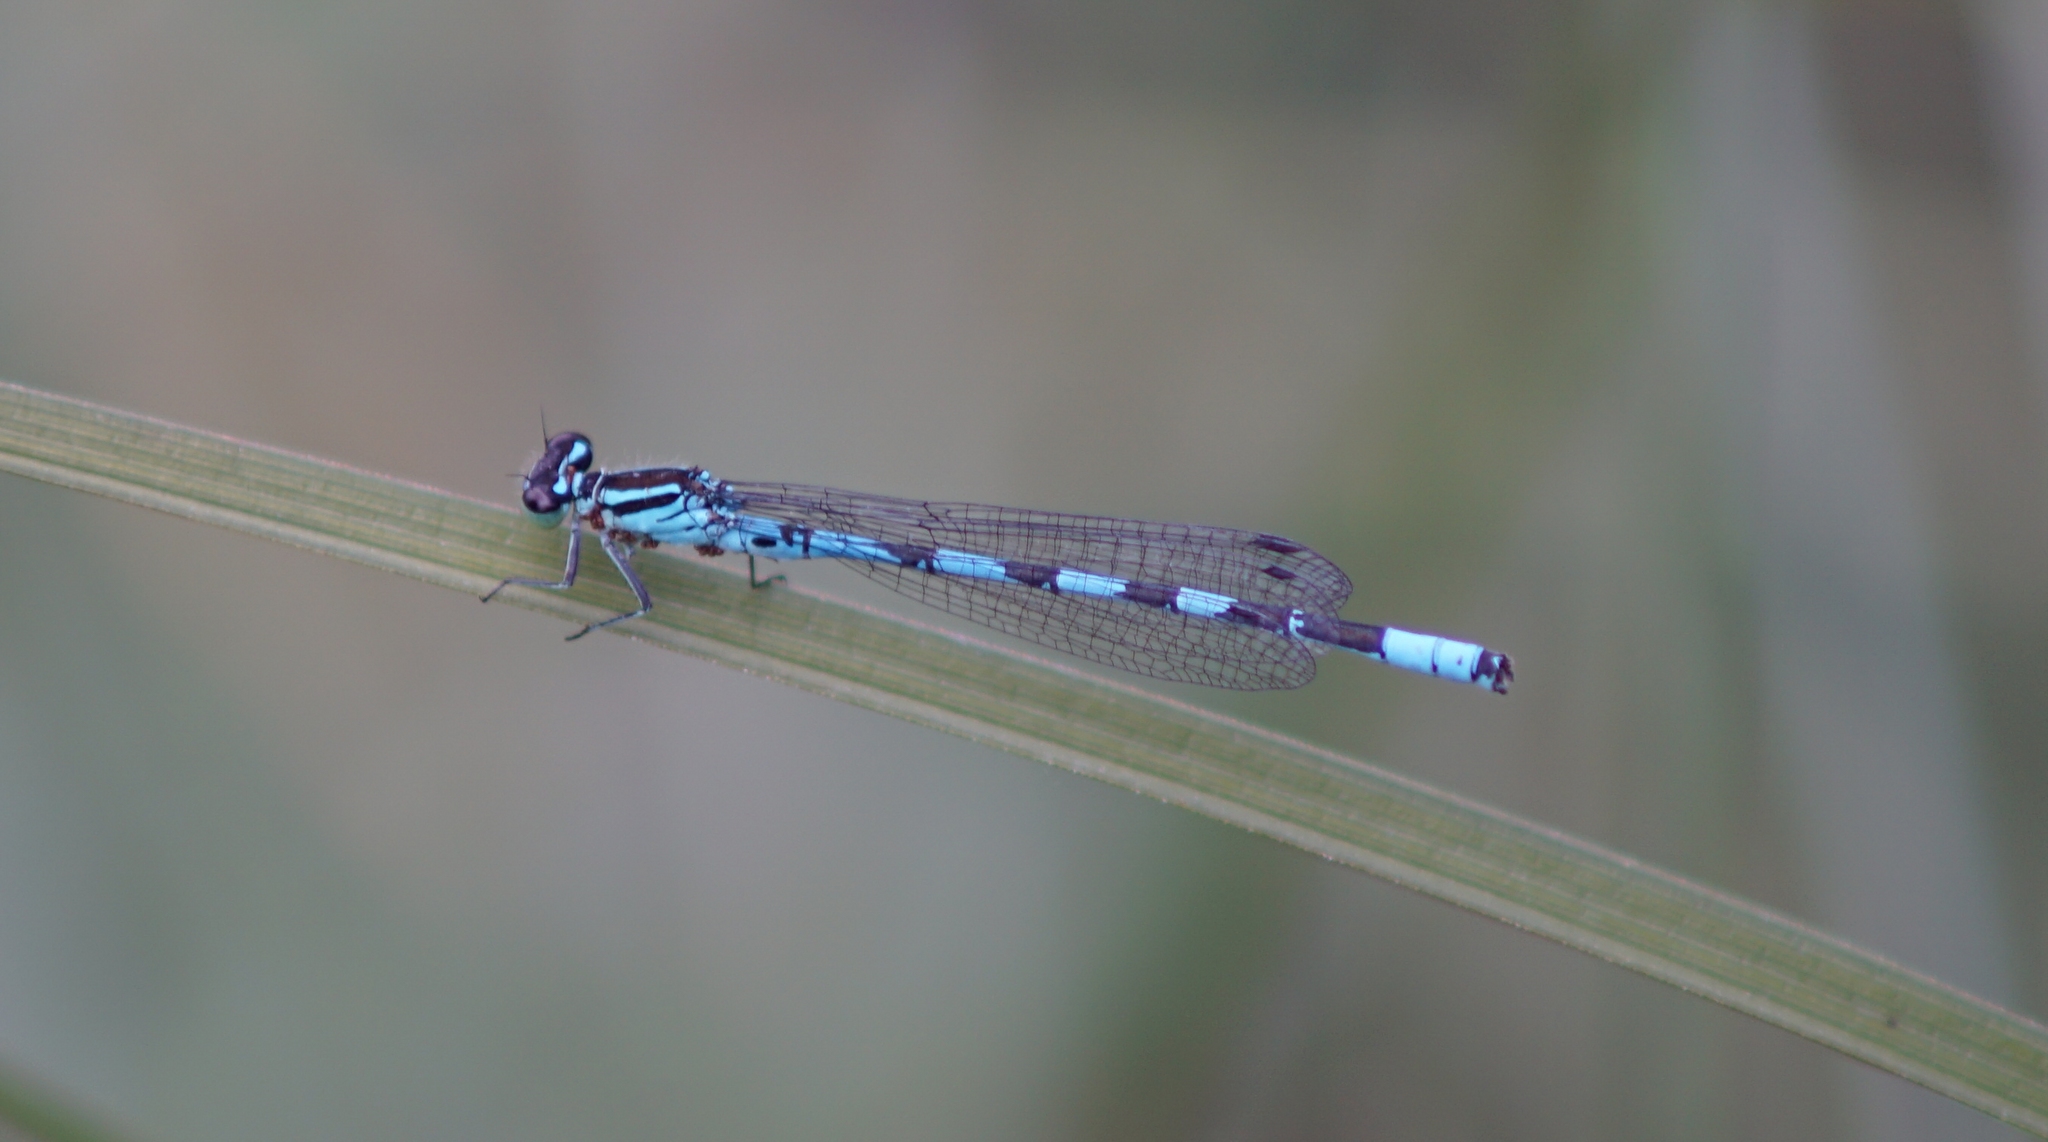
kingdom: Animalia
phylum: Arthropoda
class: Insecta
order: Odonata
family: Coenagrionidae
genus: Coenagrion
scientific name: Coenagrion hastulatum
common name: Spearhead bluet
